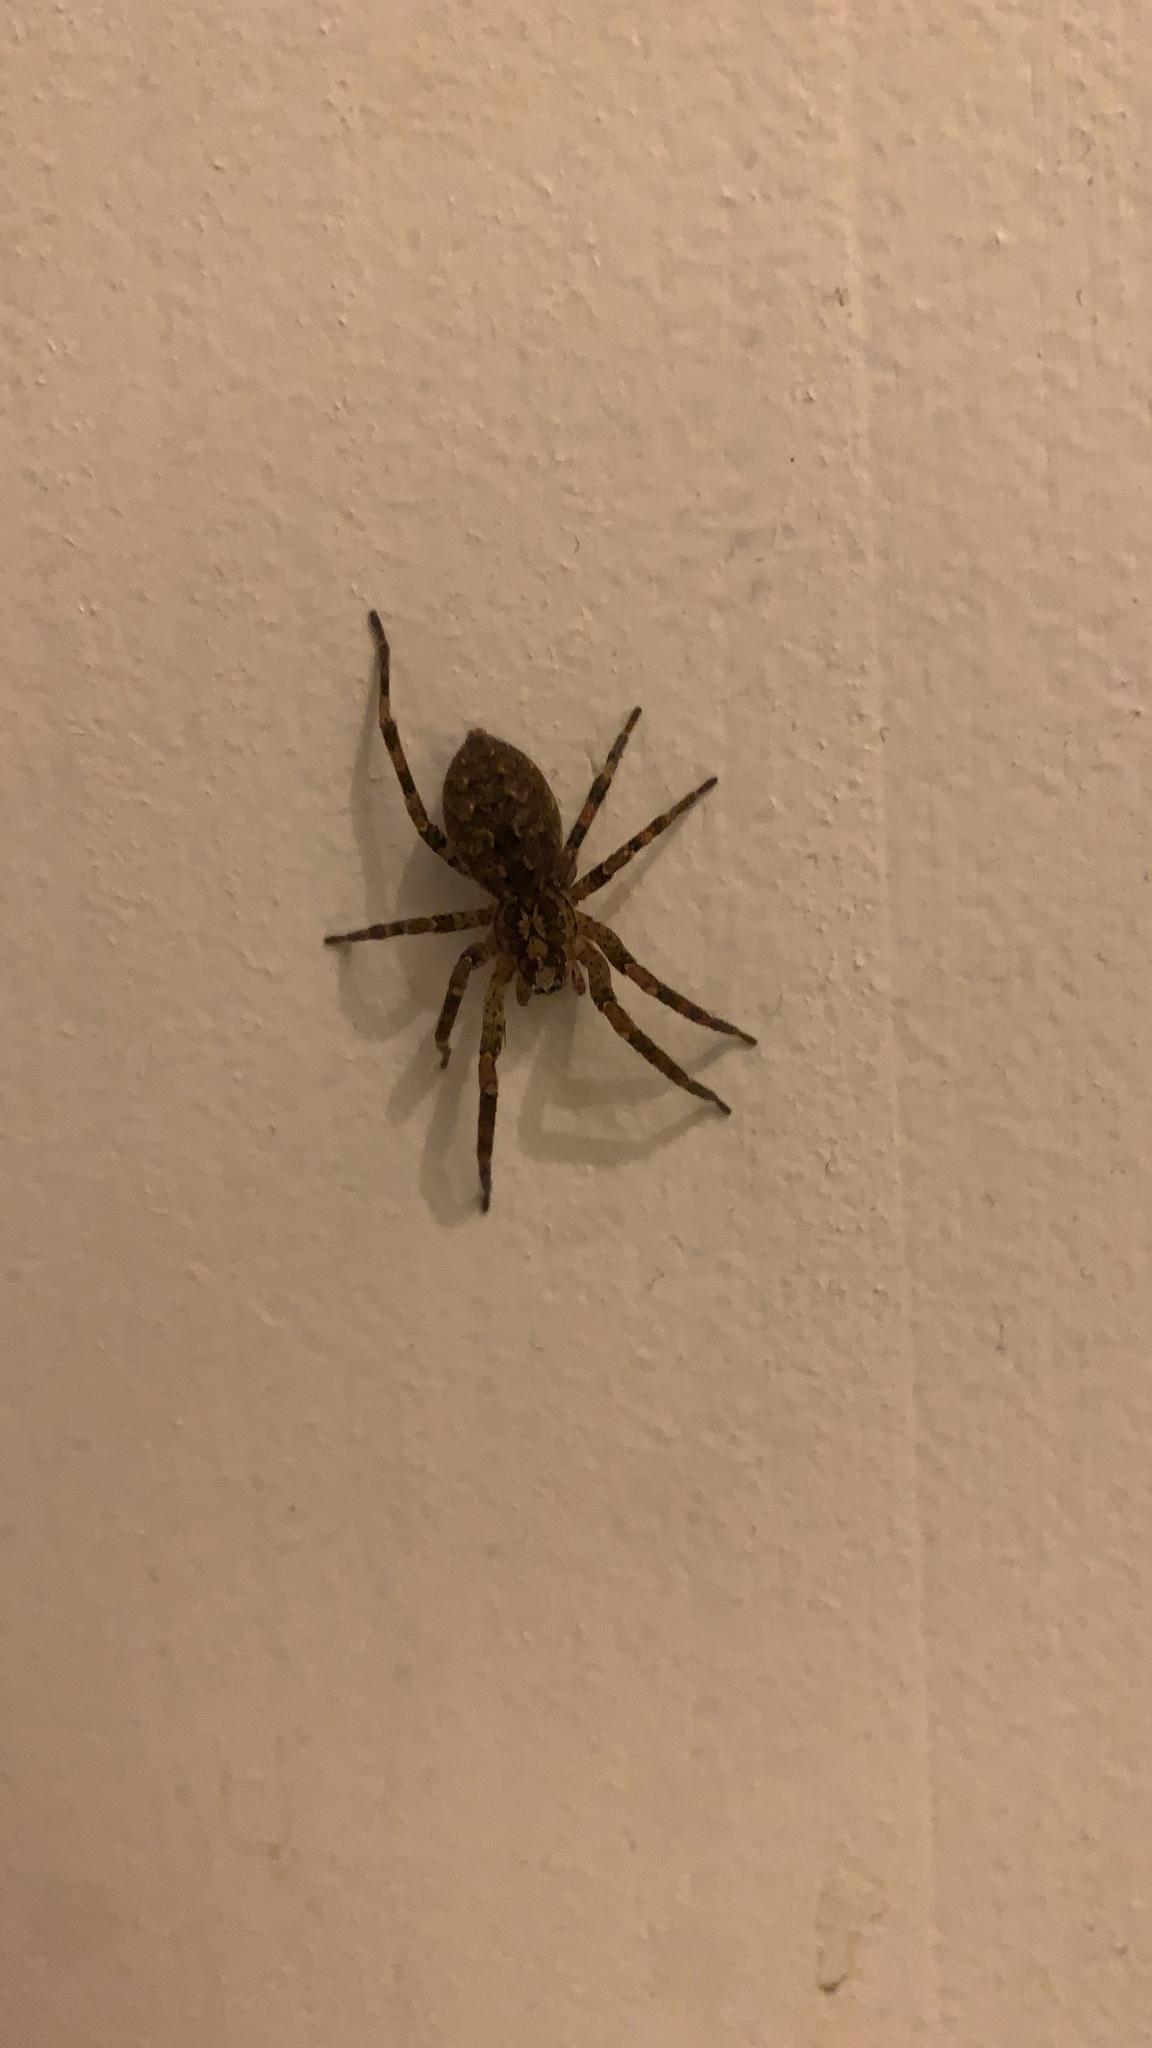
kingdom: Animalia
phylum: Arthropoda
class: Arachnida
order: Araneae
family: Zoropsidae
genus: Zoropsis
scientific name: Zoropsis spinimana
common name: Zoropsid spider
